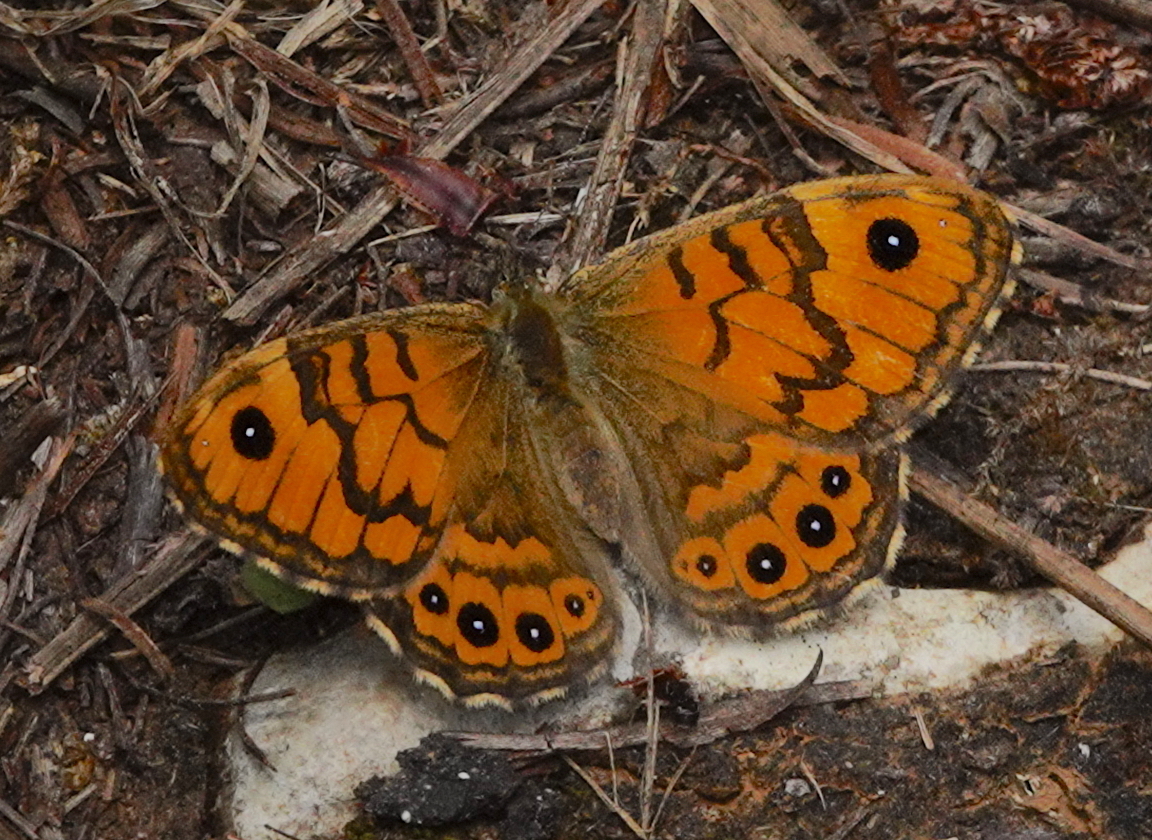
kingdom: Animalia
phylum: Arthropoda
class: Insecta
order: Lepidoptera
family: Nymphalidae
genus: Pararge
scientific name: Pararge Lasiommata megera
